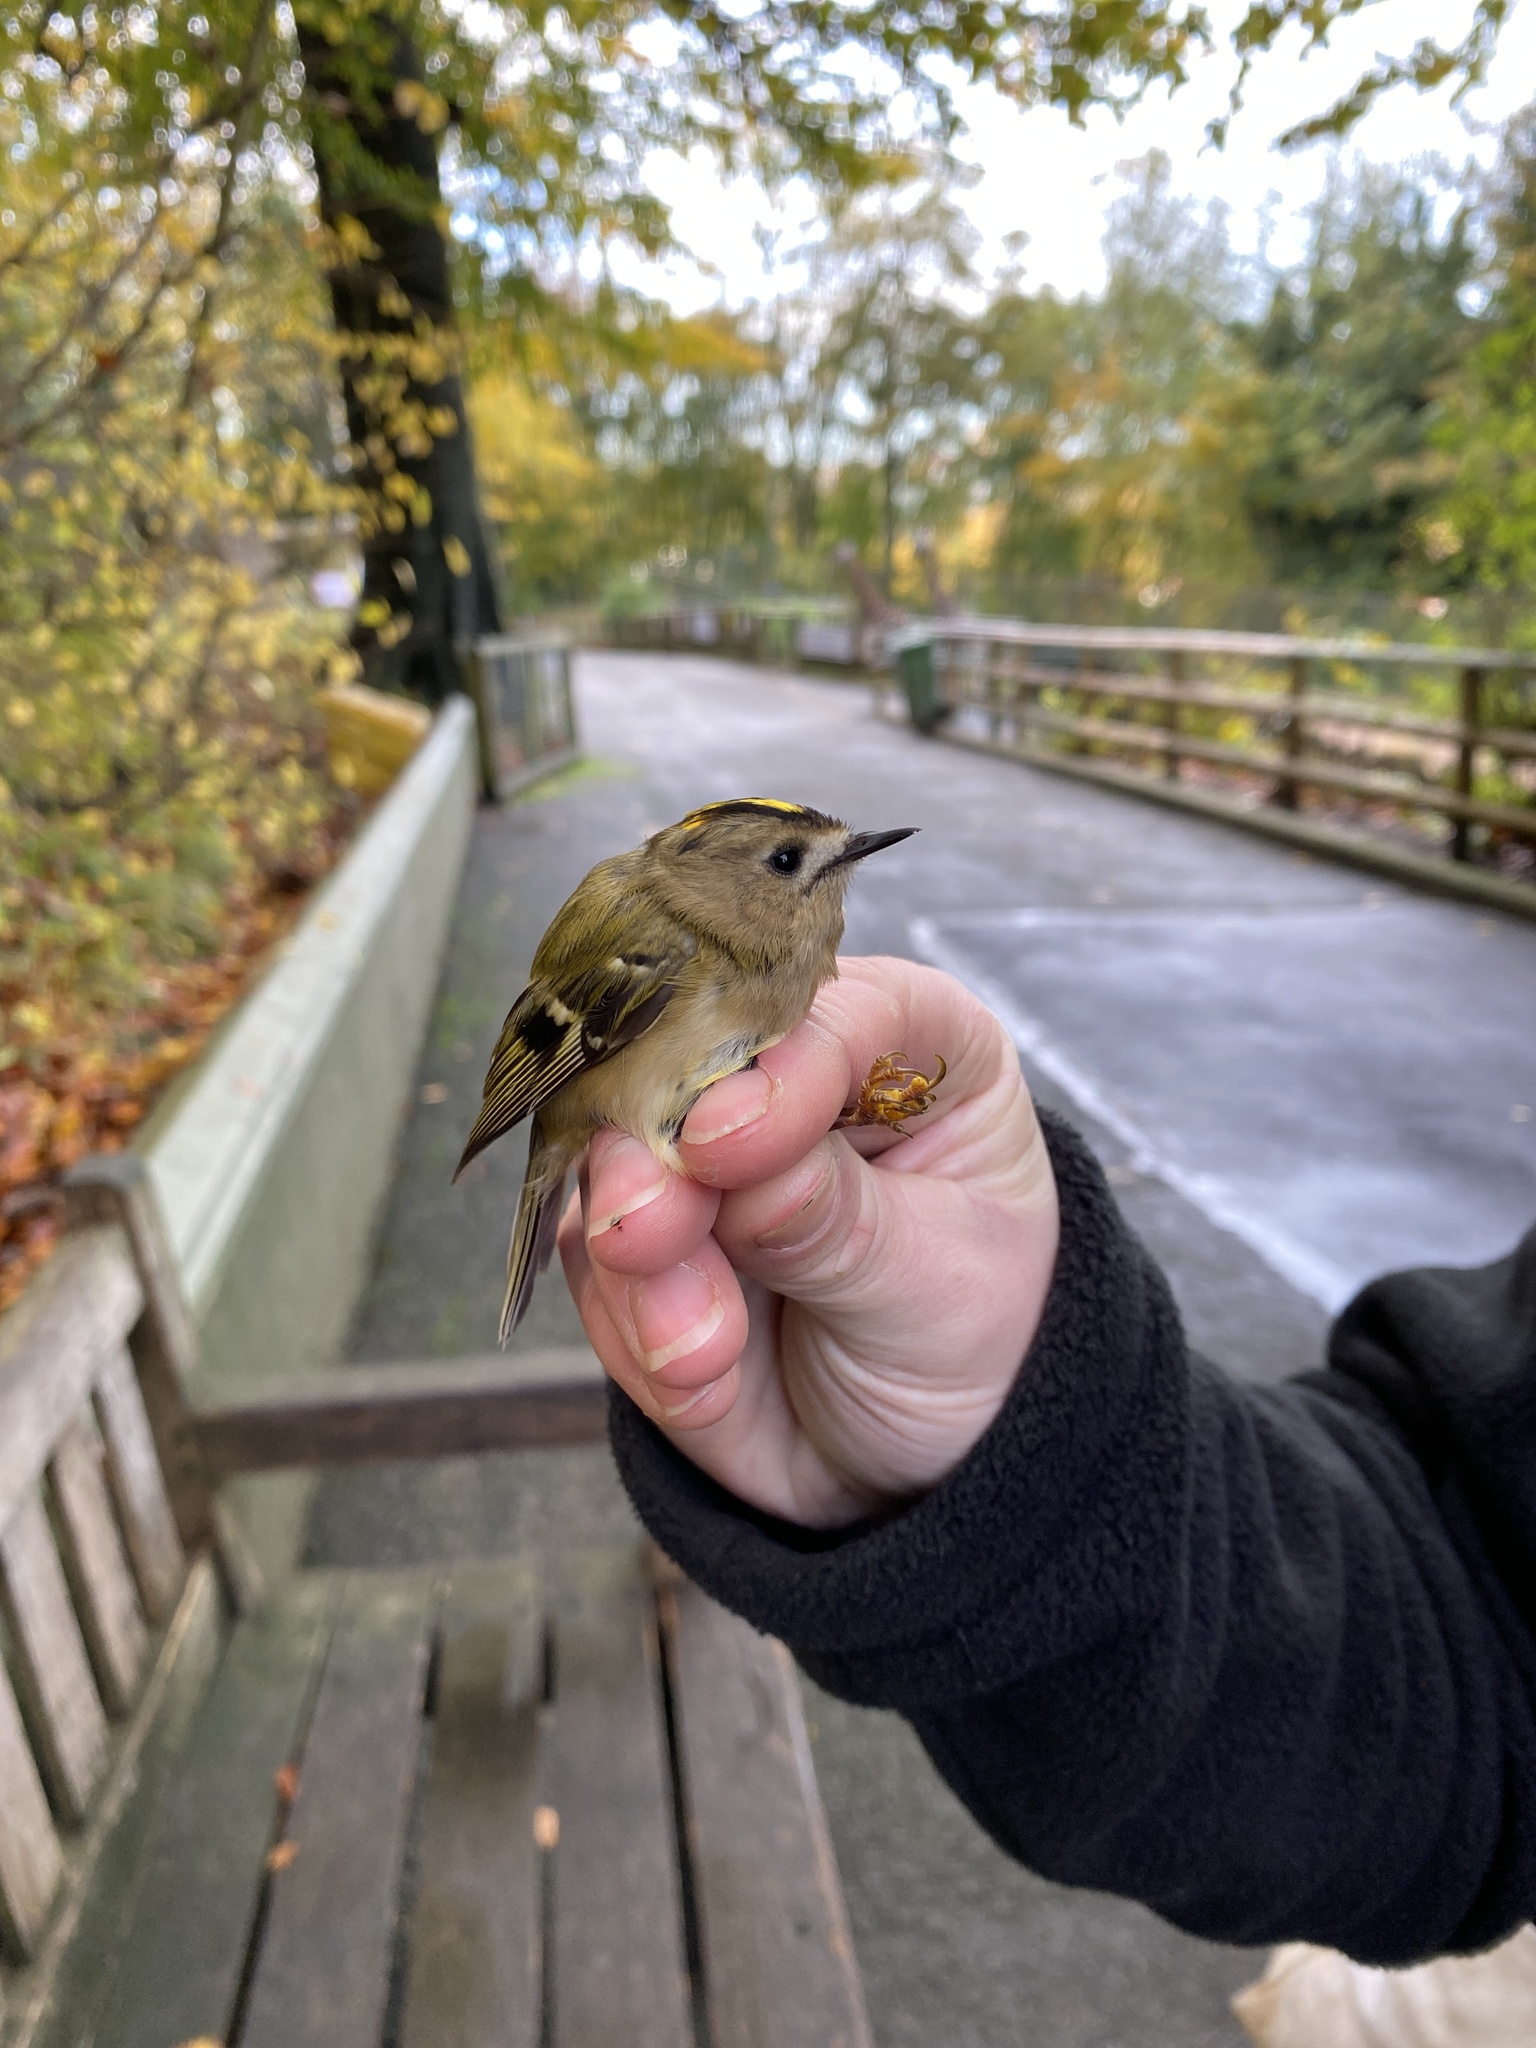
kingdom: Animalia
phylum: Chordata
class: Aves
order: Passeriformes
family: Regulidae
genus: Regulus
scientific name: Regulus regulus
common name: Goldcrest
